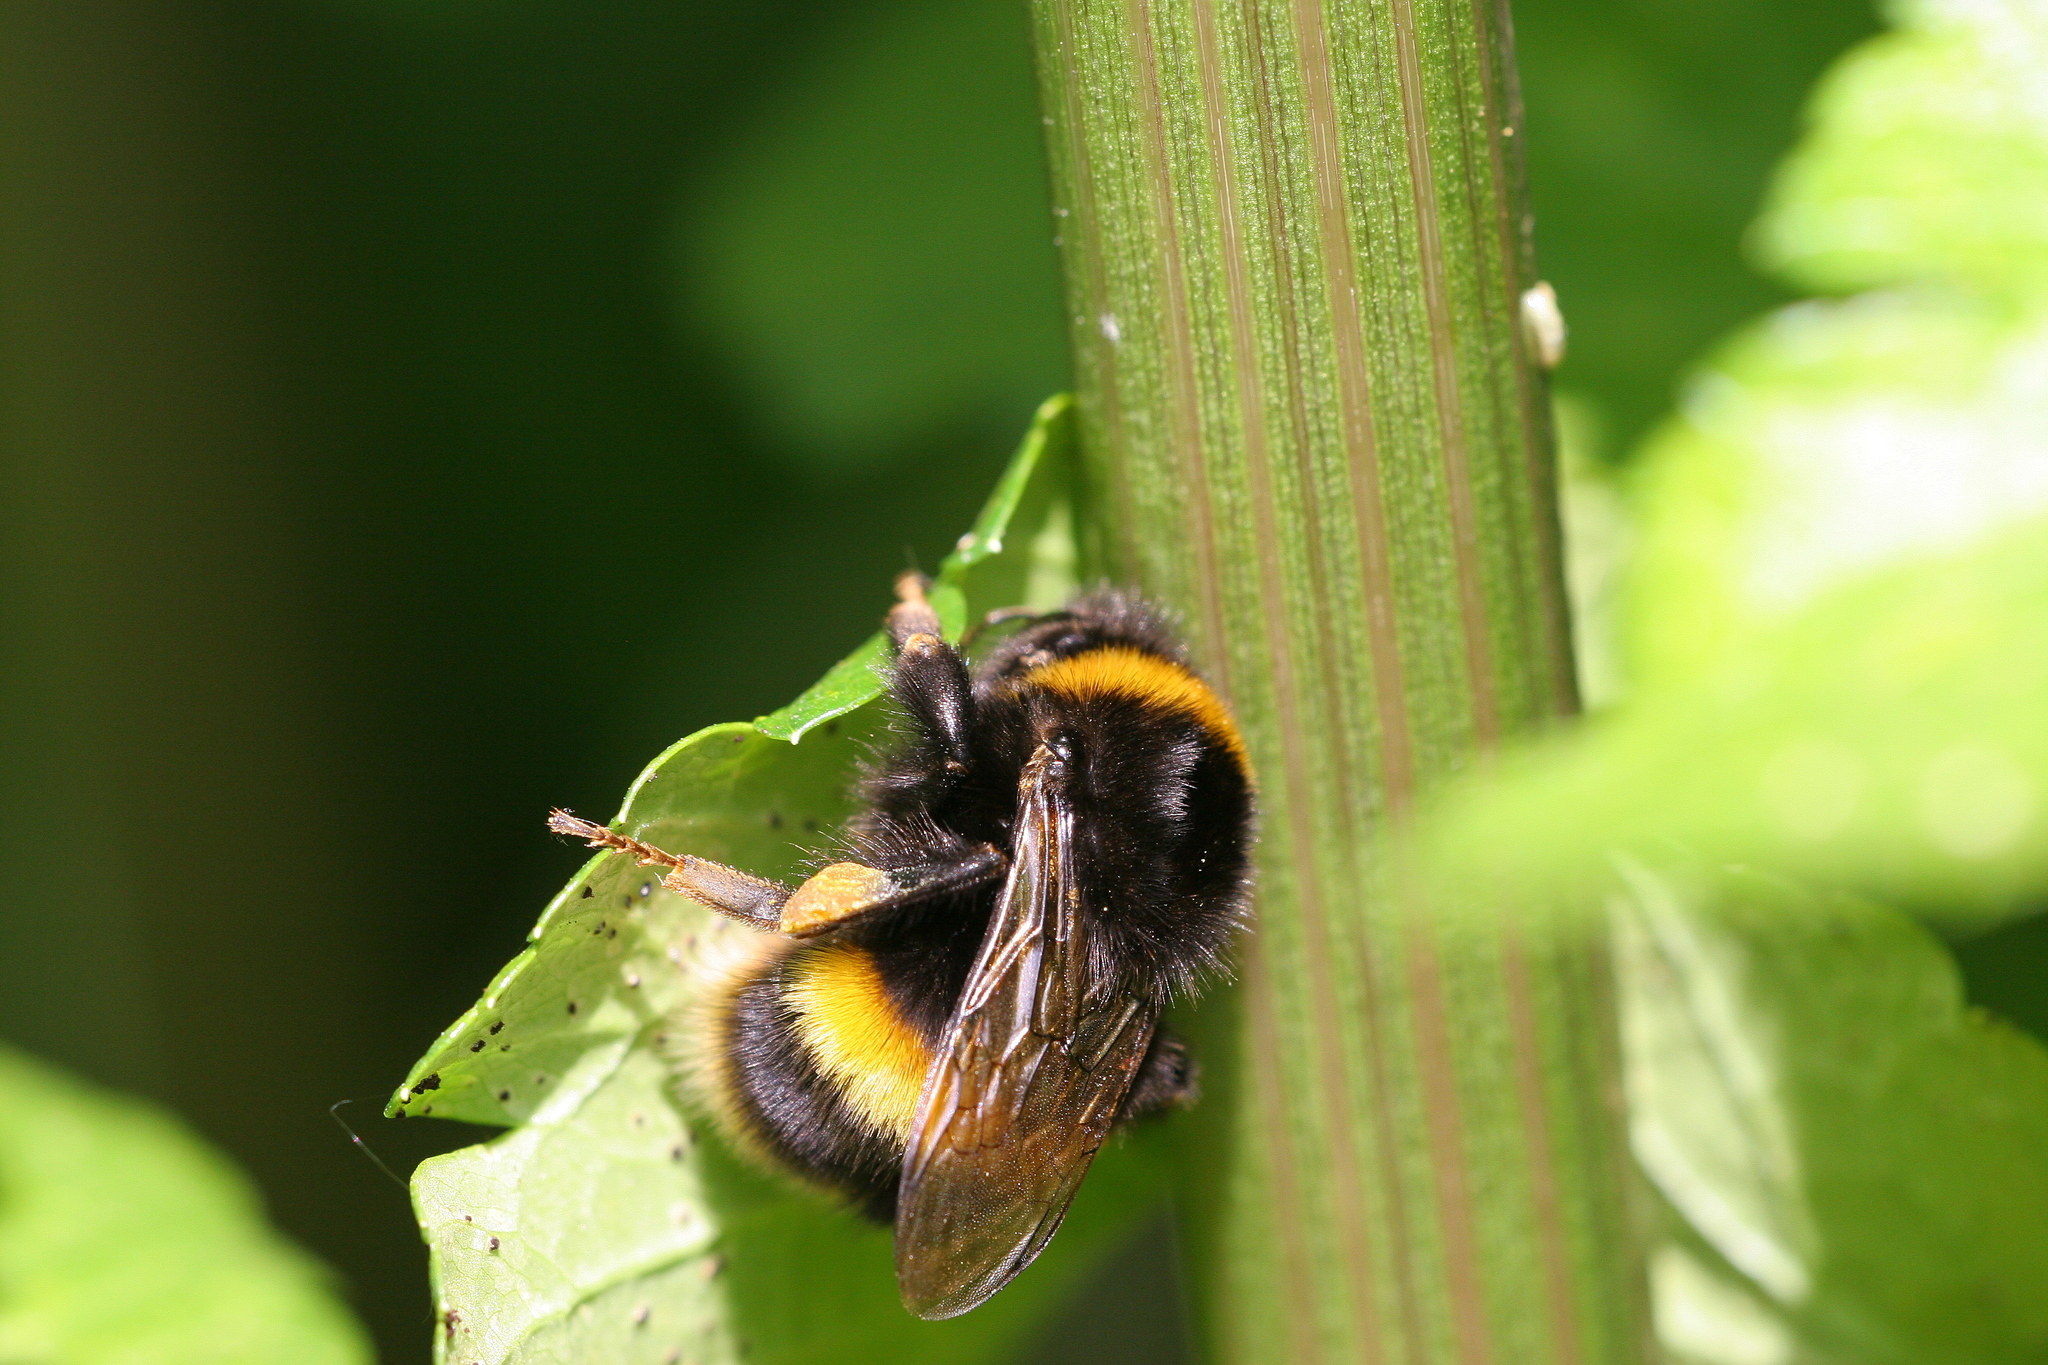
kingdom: Animalia
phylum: Arthropoda
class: Insecta
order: Hymenoptera
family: Apidae
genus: Bombus
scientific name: Bombus terrestris
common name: Buff-tailed bumblebee
